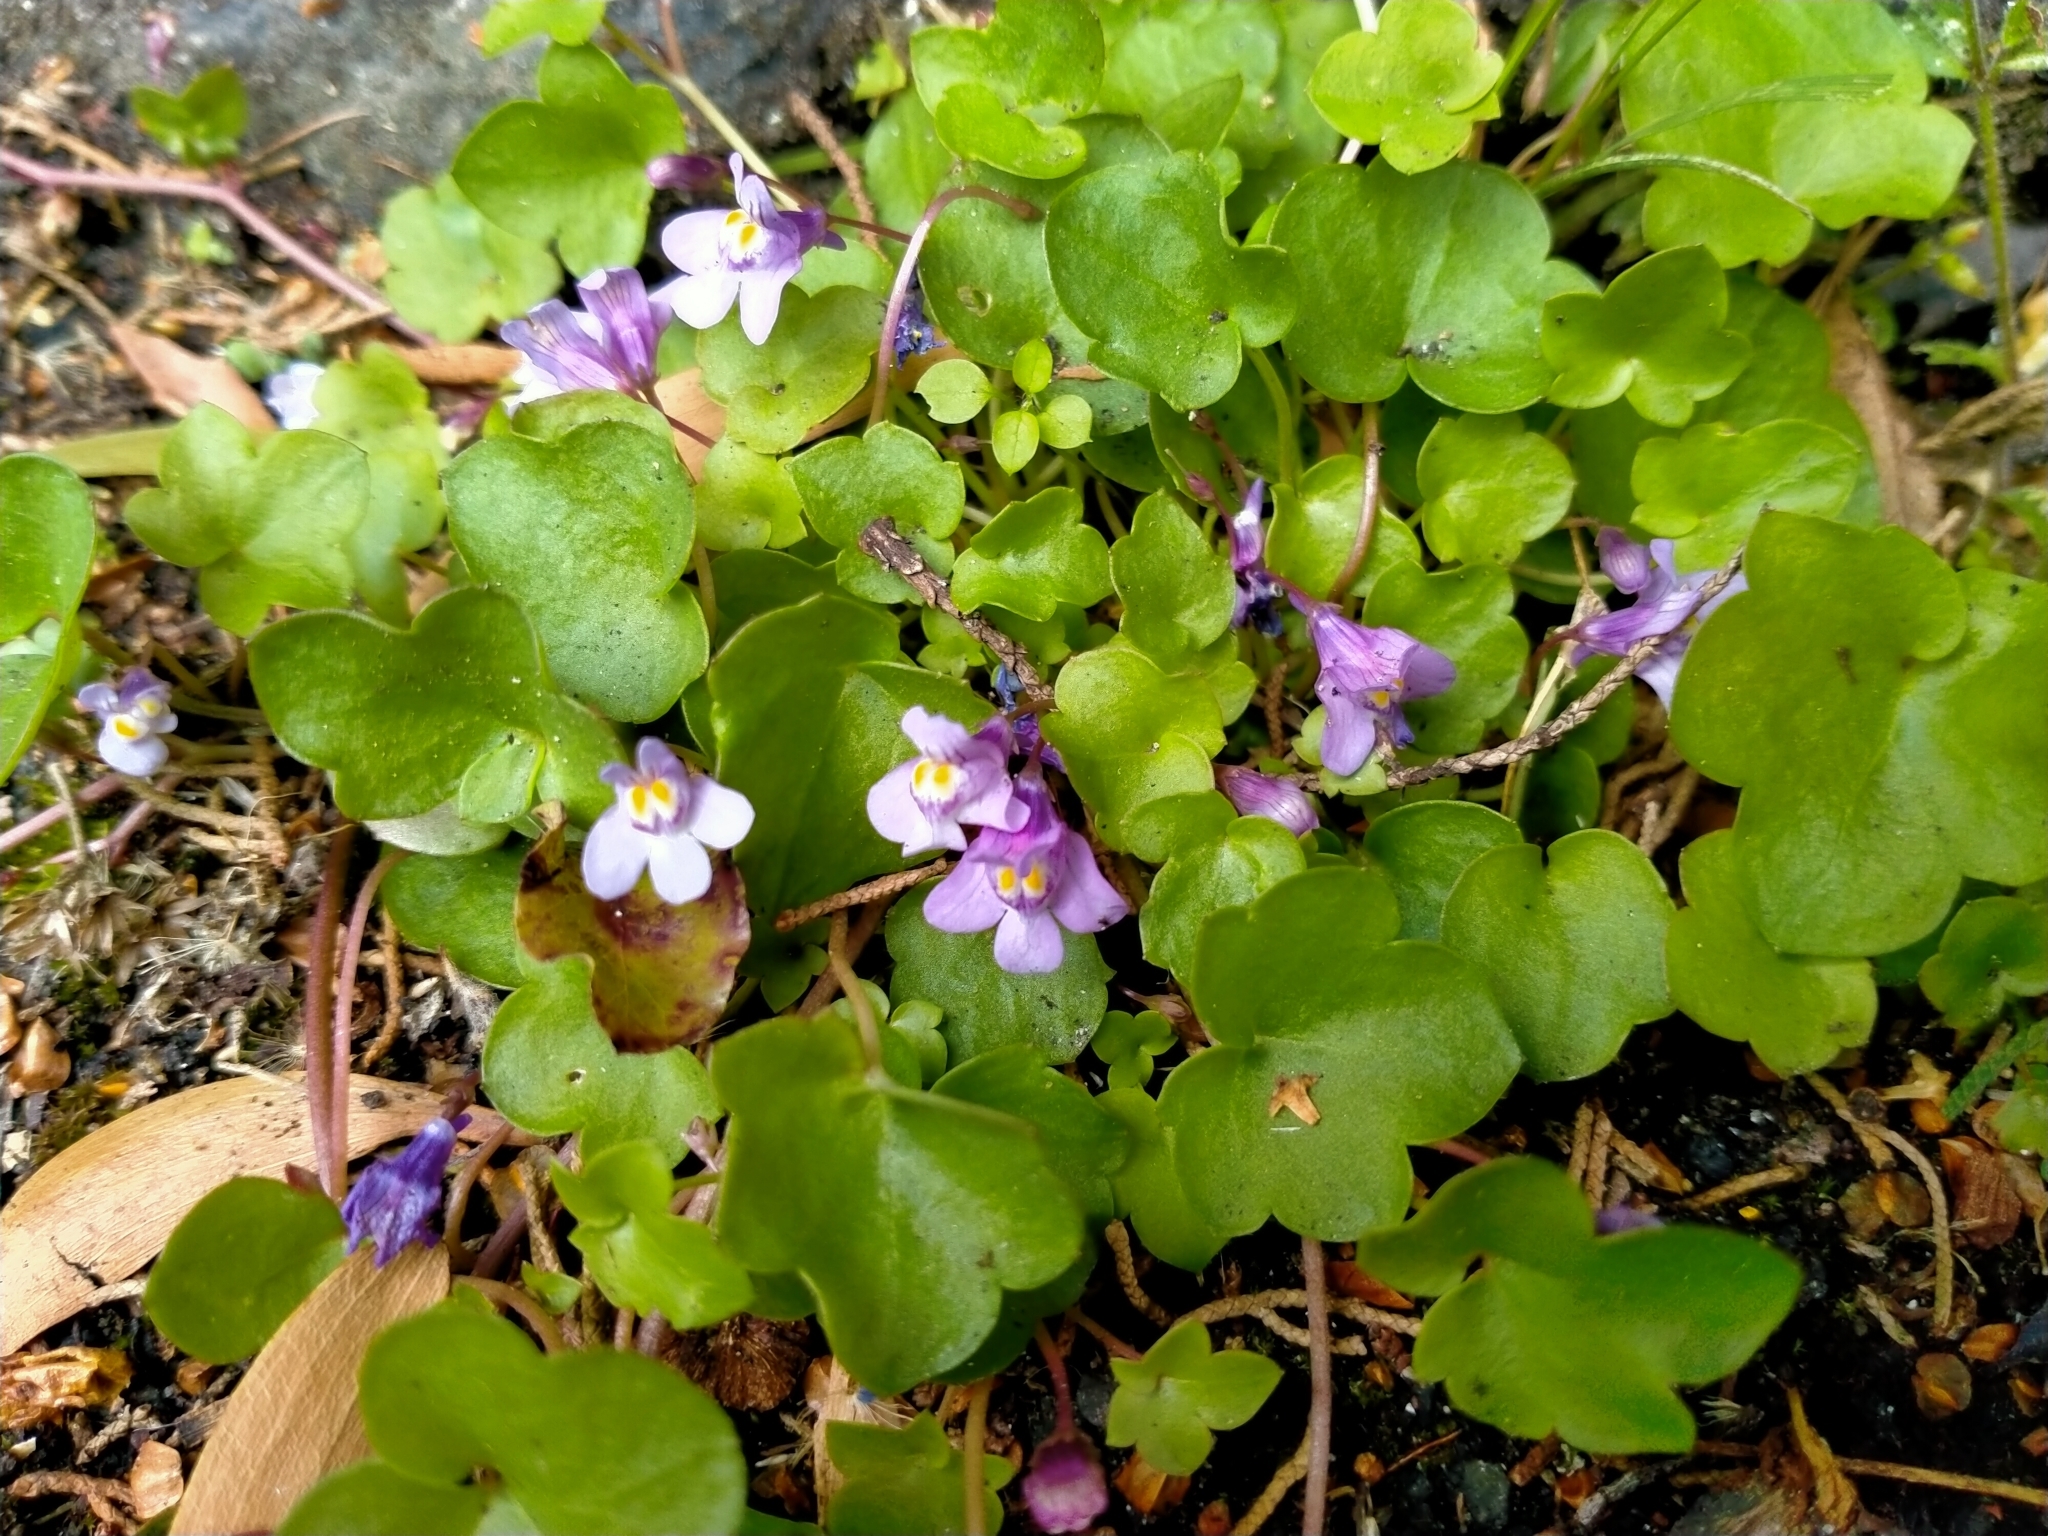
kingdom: Plantae
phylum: Tracheophyta
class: Magnoliopsida
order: Lamiales
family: Plantaginaceae
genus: Cymbalaria
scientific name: Cymbalaria muralis
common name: Ivy-leaved toadflax
